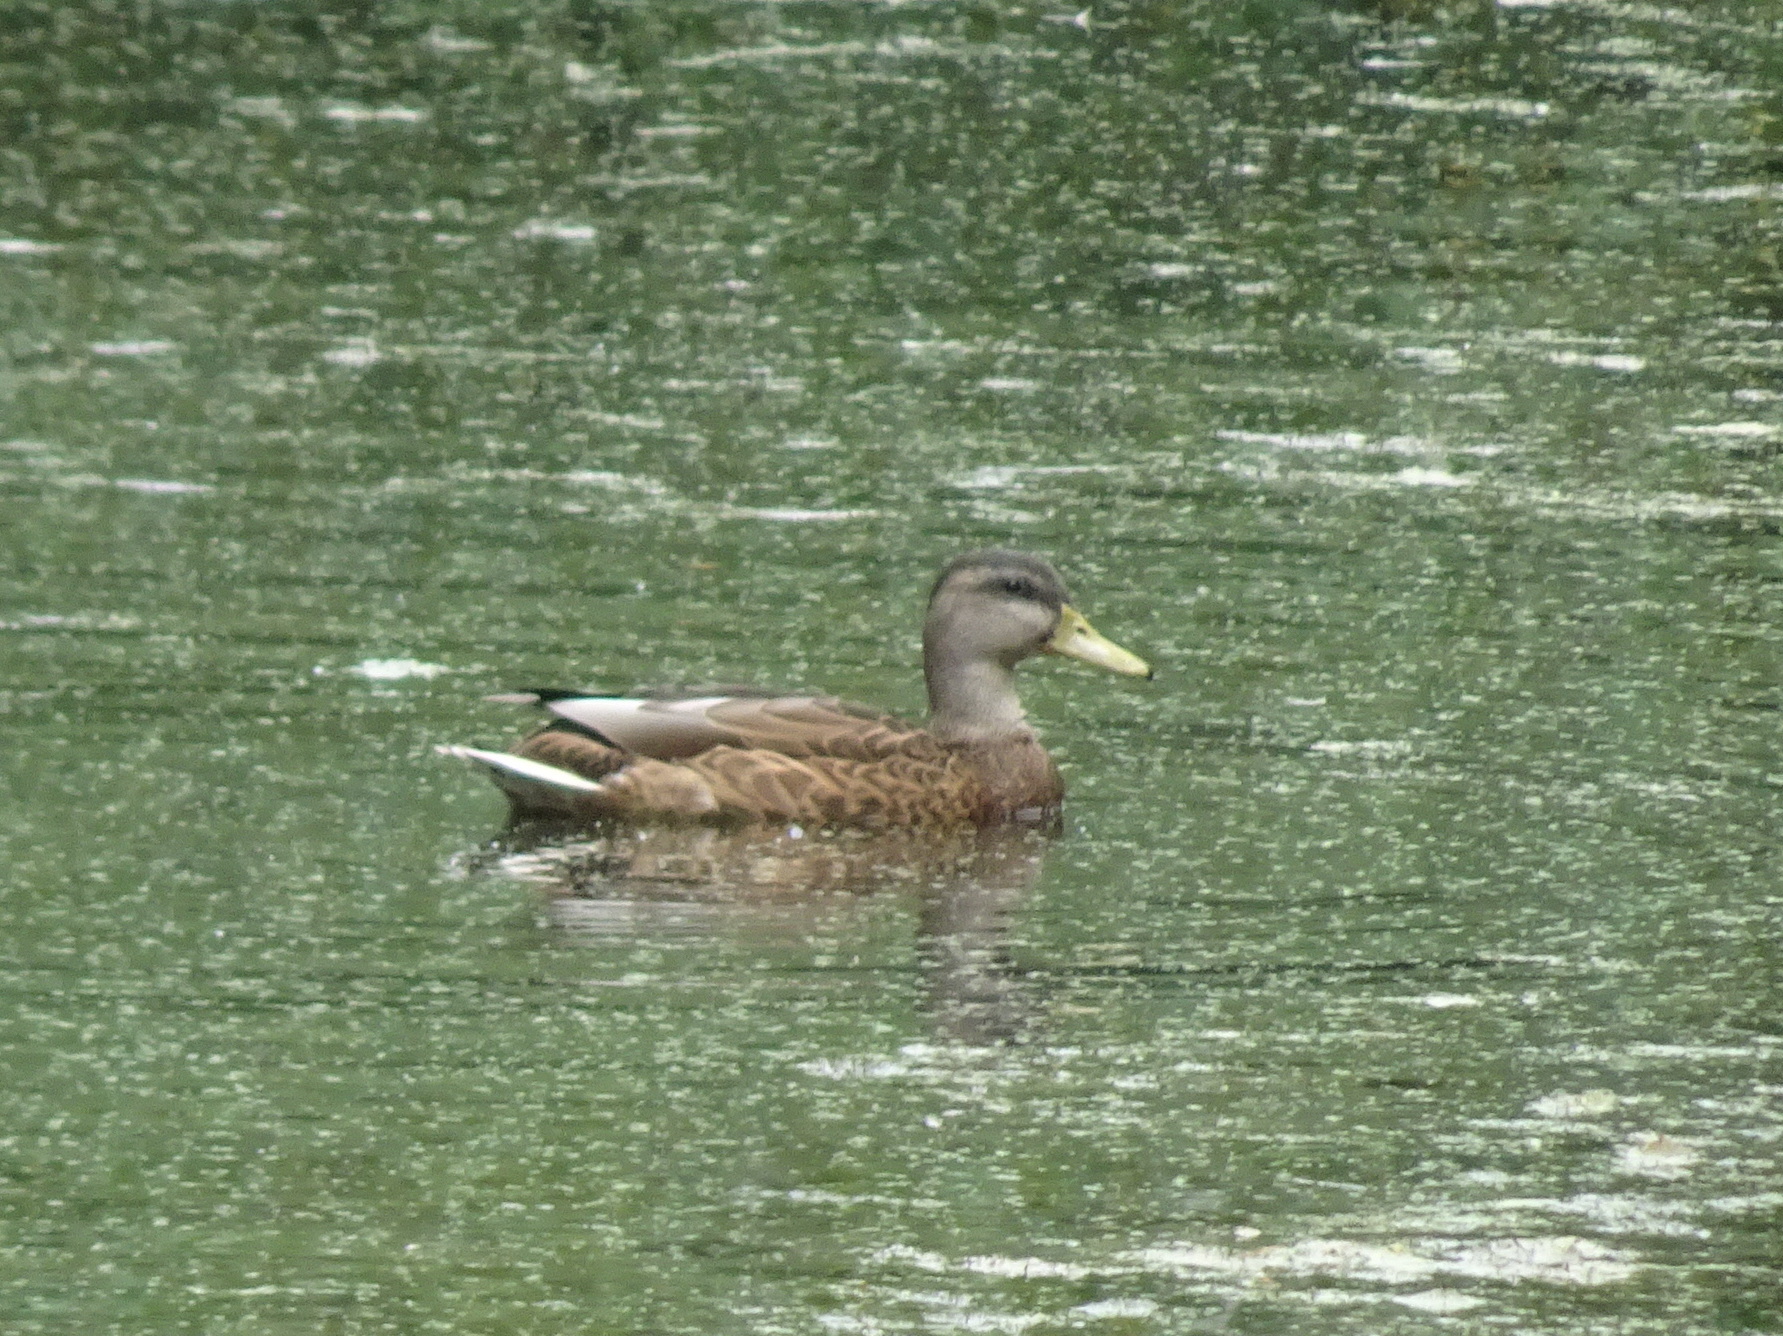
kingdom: Animalia
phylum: Chordata
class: Aves
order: Anseriformes
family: Anatidae
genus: Anas
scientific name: Anas platyrhynchos
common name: Mallard
